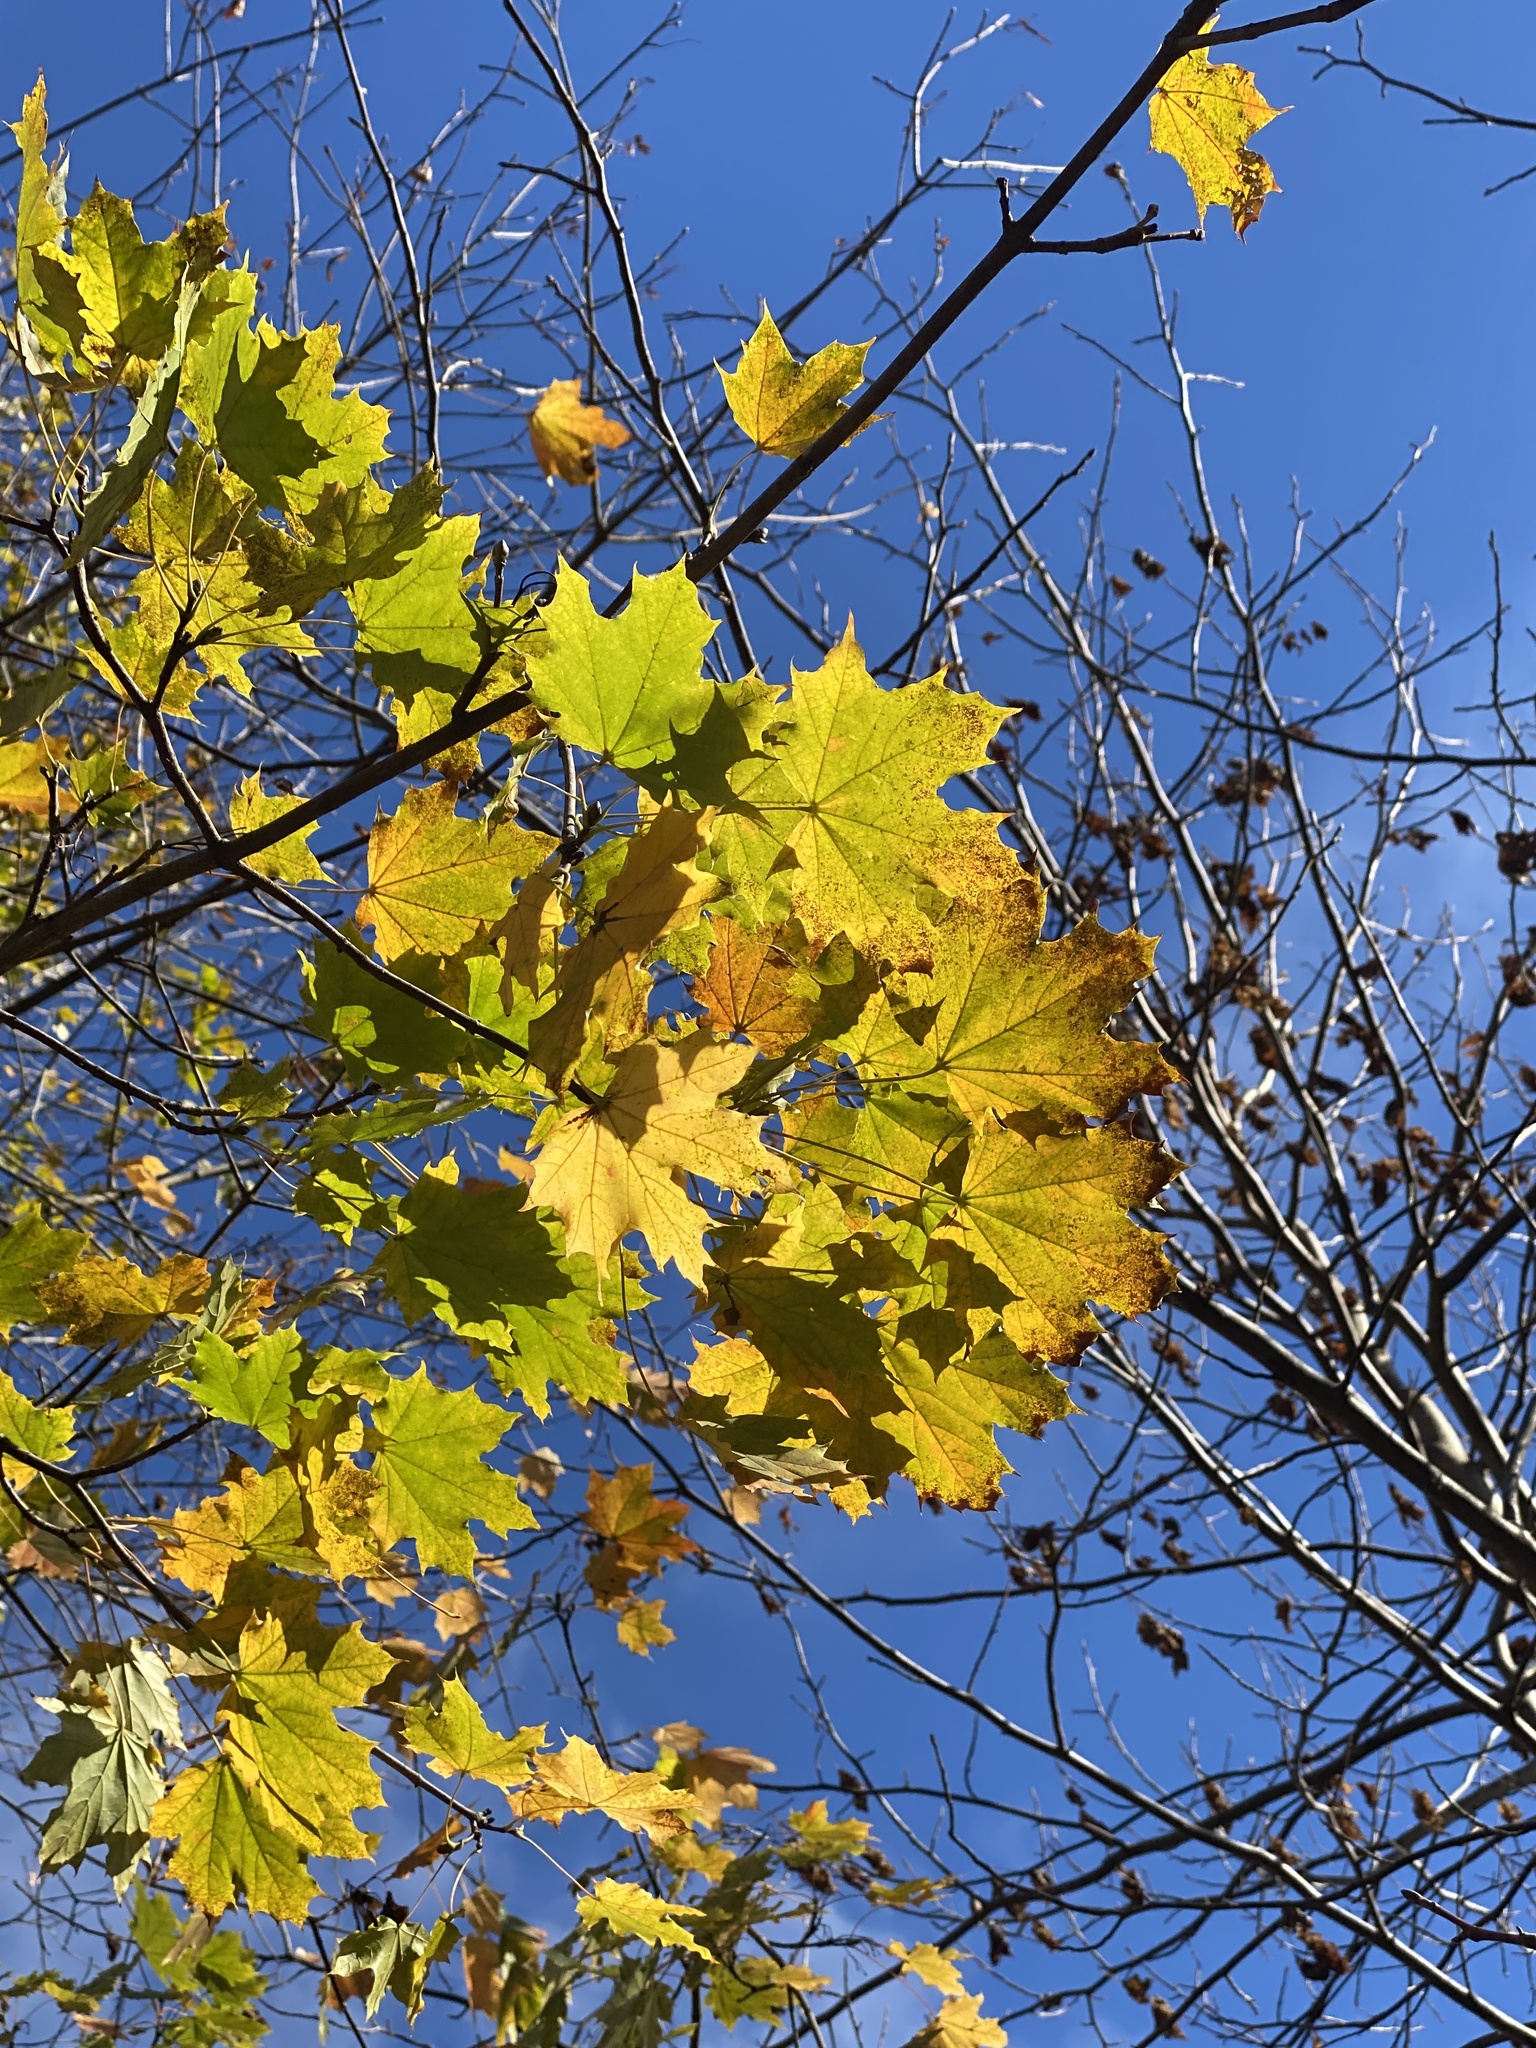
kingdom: Plantae
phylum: Tracheophyta
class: Magnoliopsida
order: Sapindales
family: Sapindaceae
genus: Acer
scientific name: Acer platanoides
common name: Norway maple
